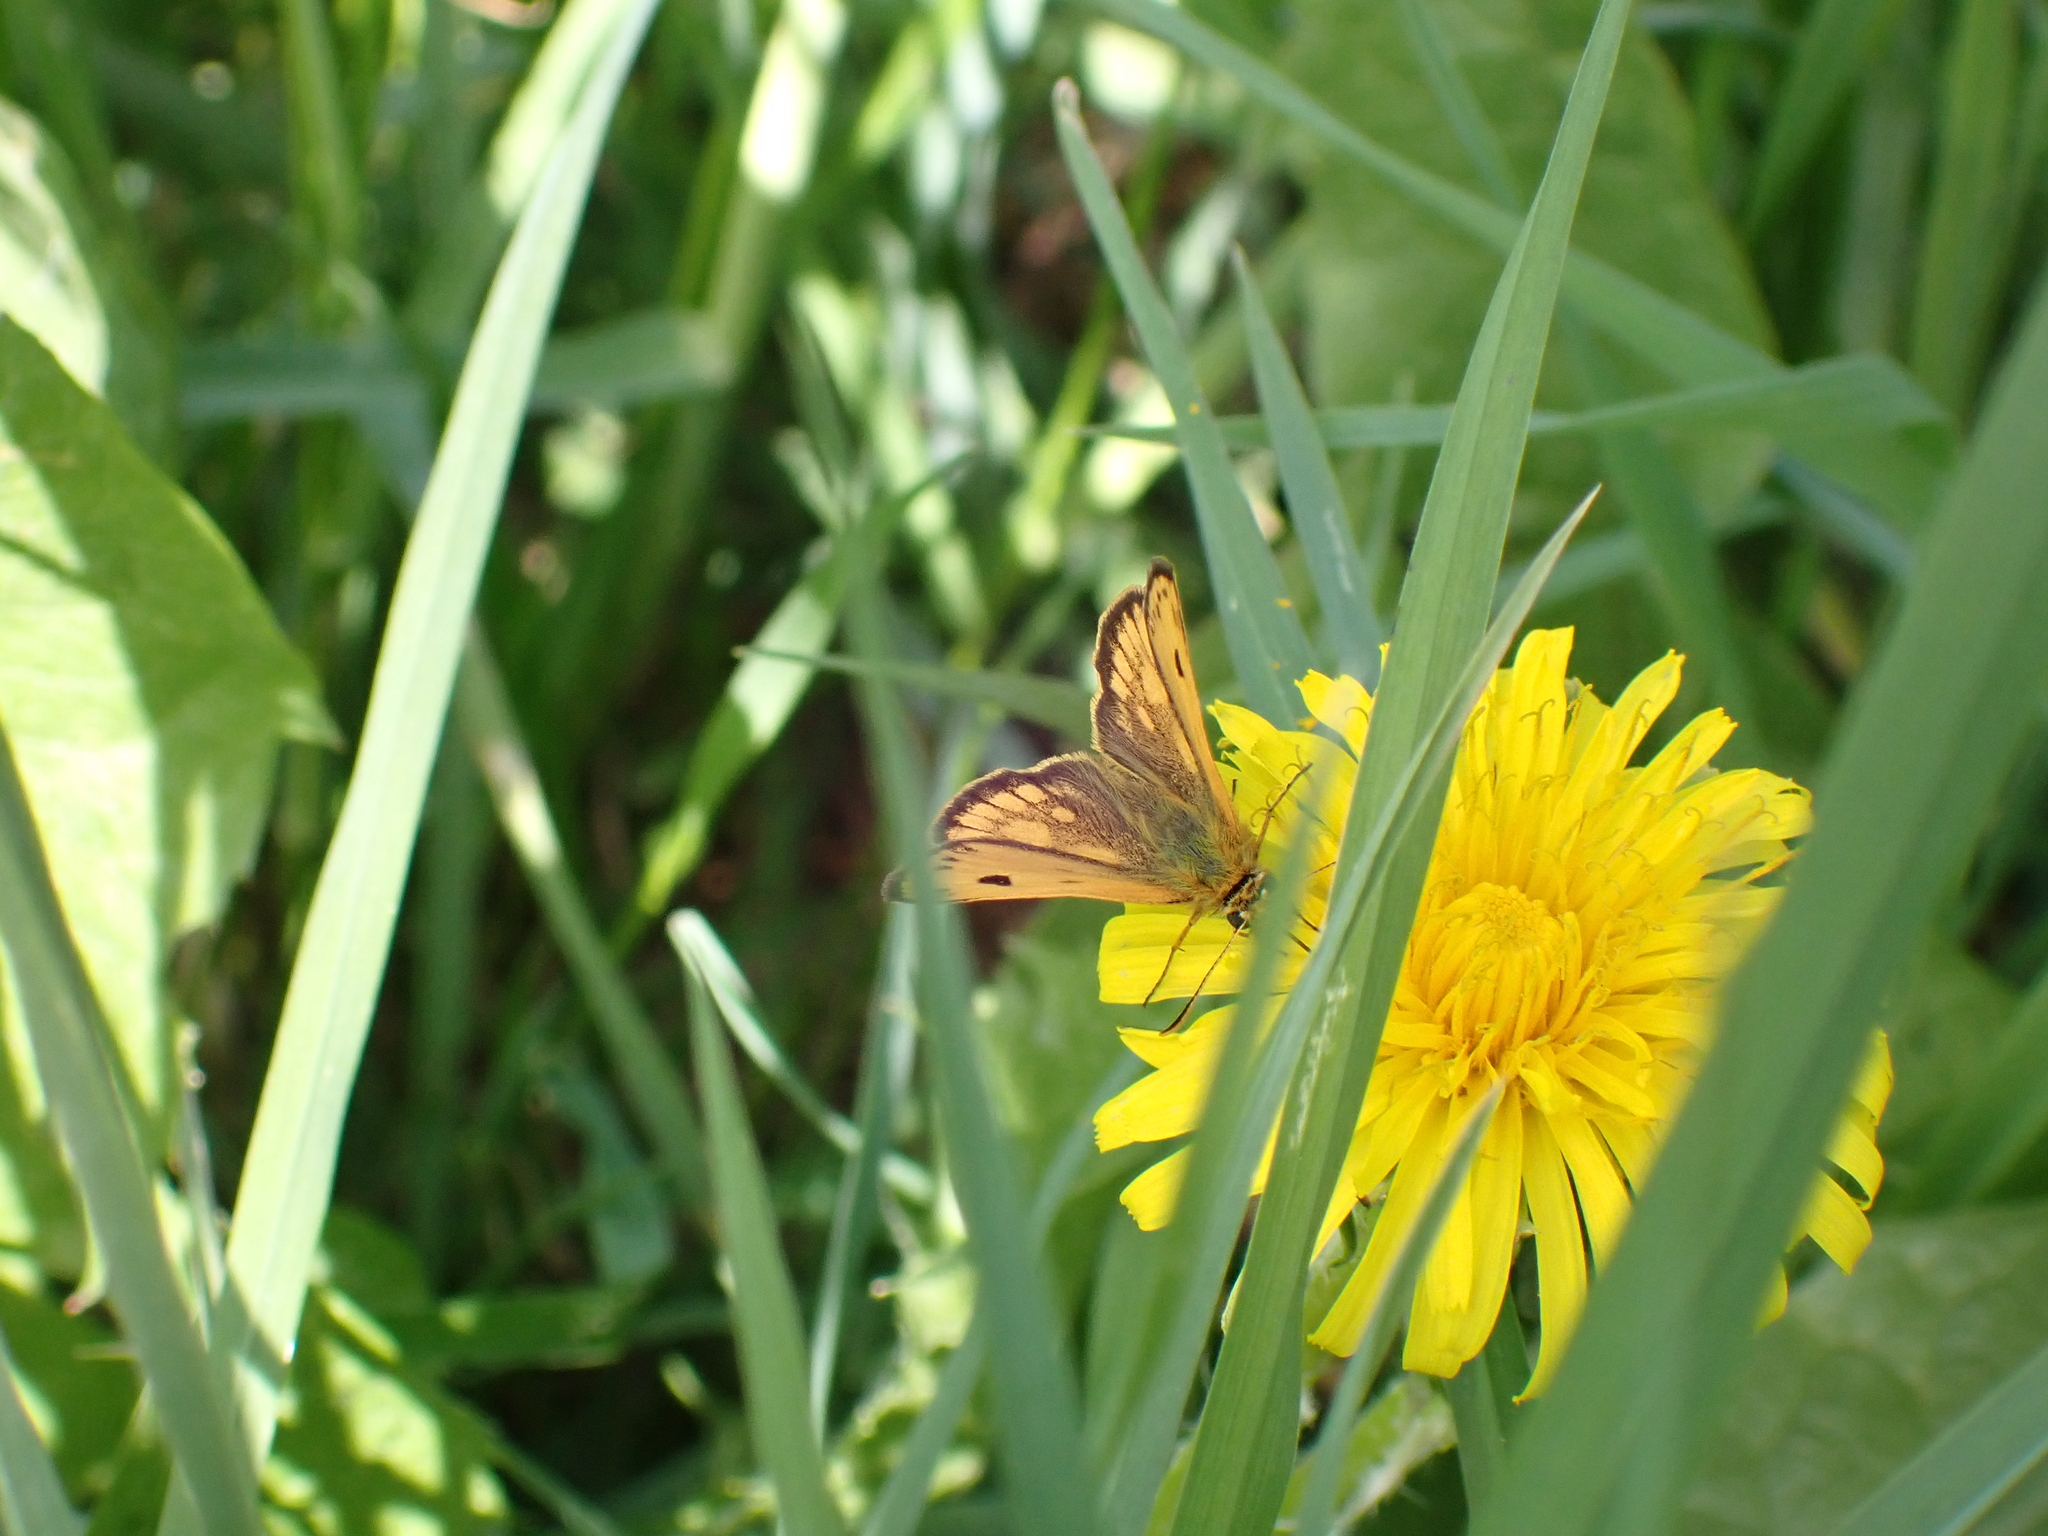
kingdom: Animalia
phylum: Arthropoda
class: Insecta
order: Lepidoptera
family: Hesperiidae
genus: Carterocephalus
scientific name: Carterocephalus silvicola
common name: Northern chequered skipper
